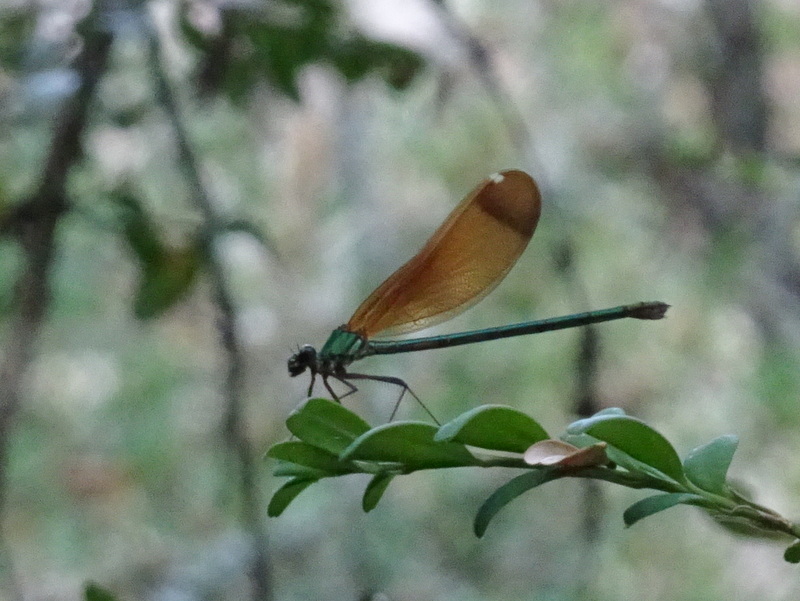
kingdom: Animalia
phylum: Arthropoda
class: Insecta
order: Odonata
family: Calopterygidae
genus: Calopteryx
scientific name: Calopteryx haemorrhoidalis
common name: Copper demoiselle
